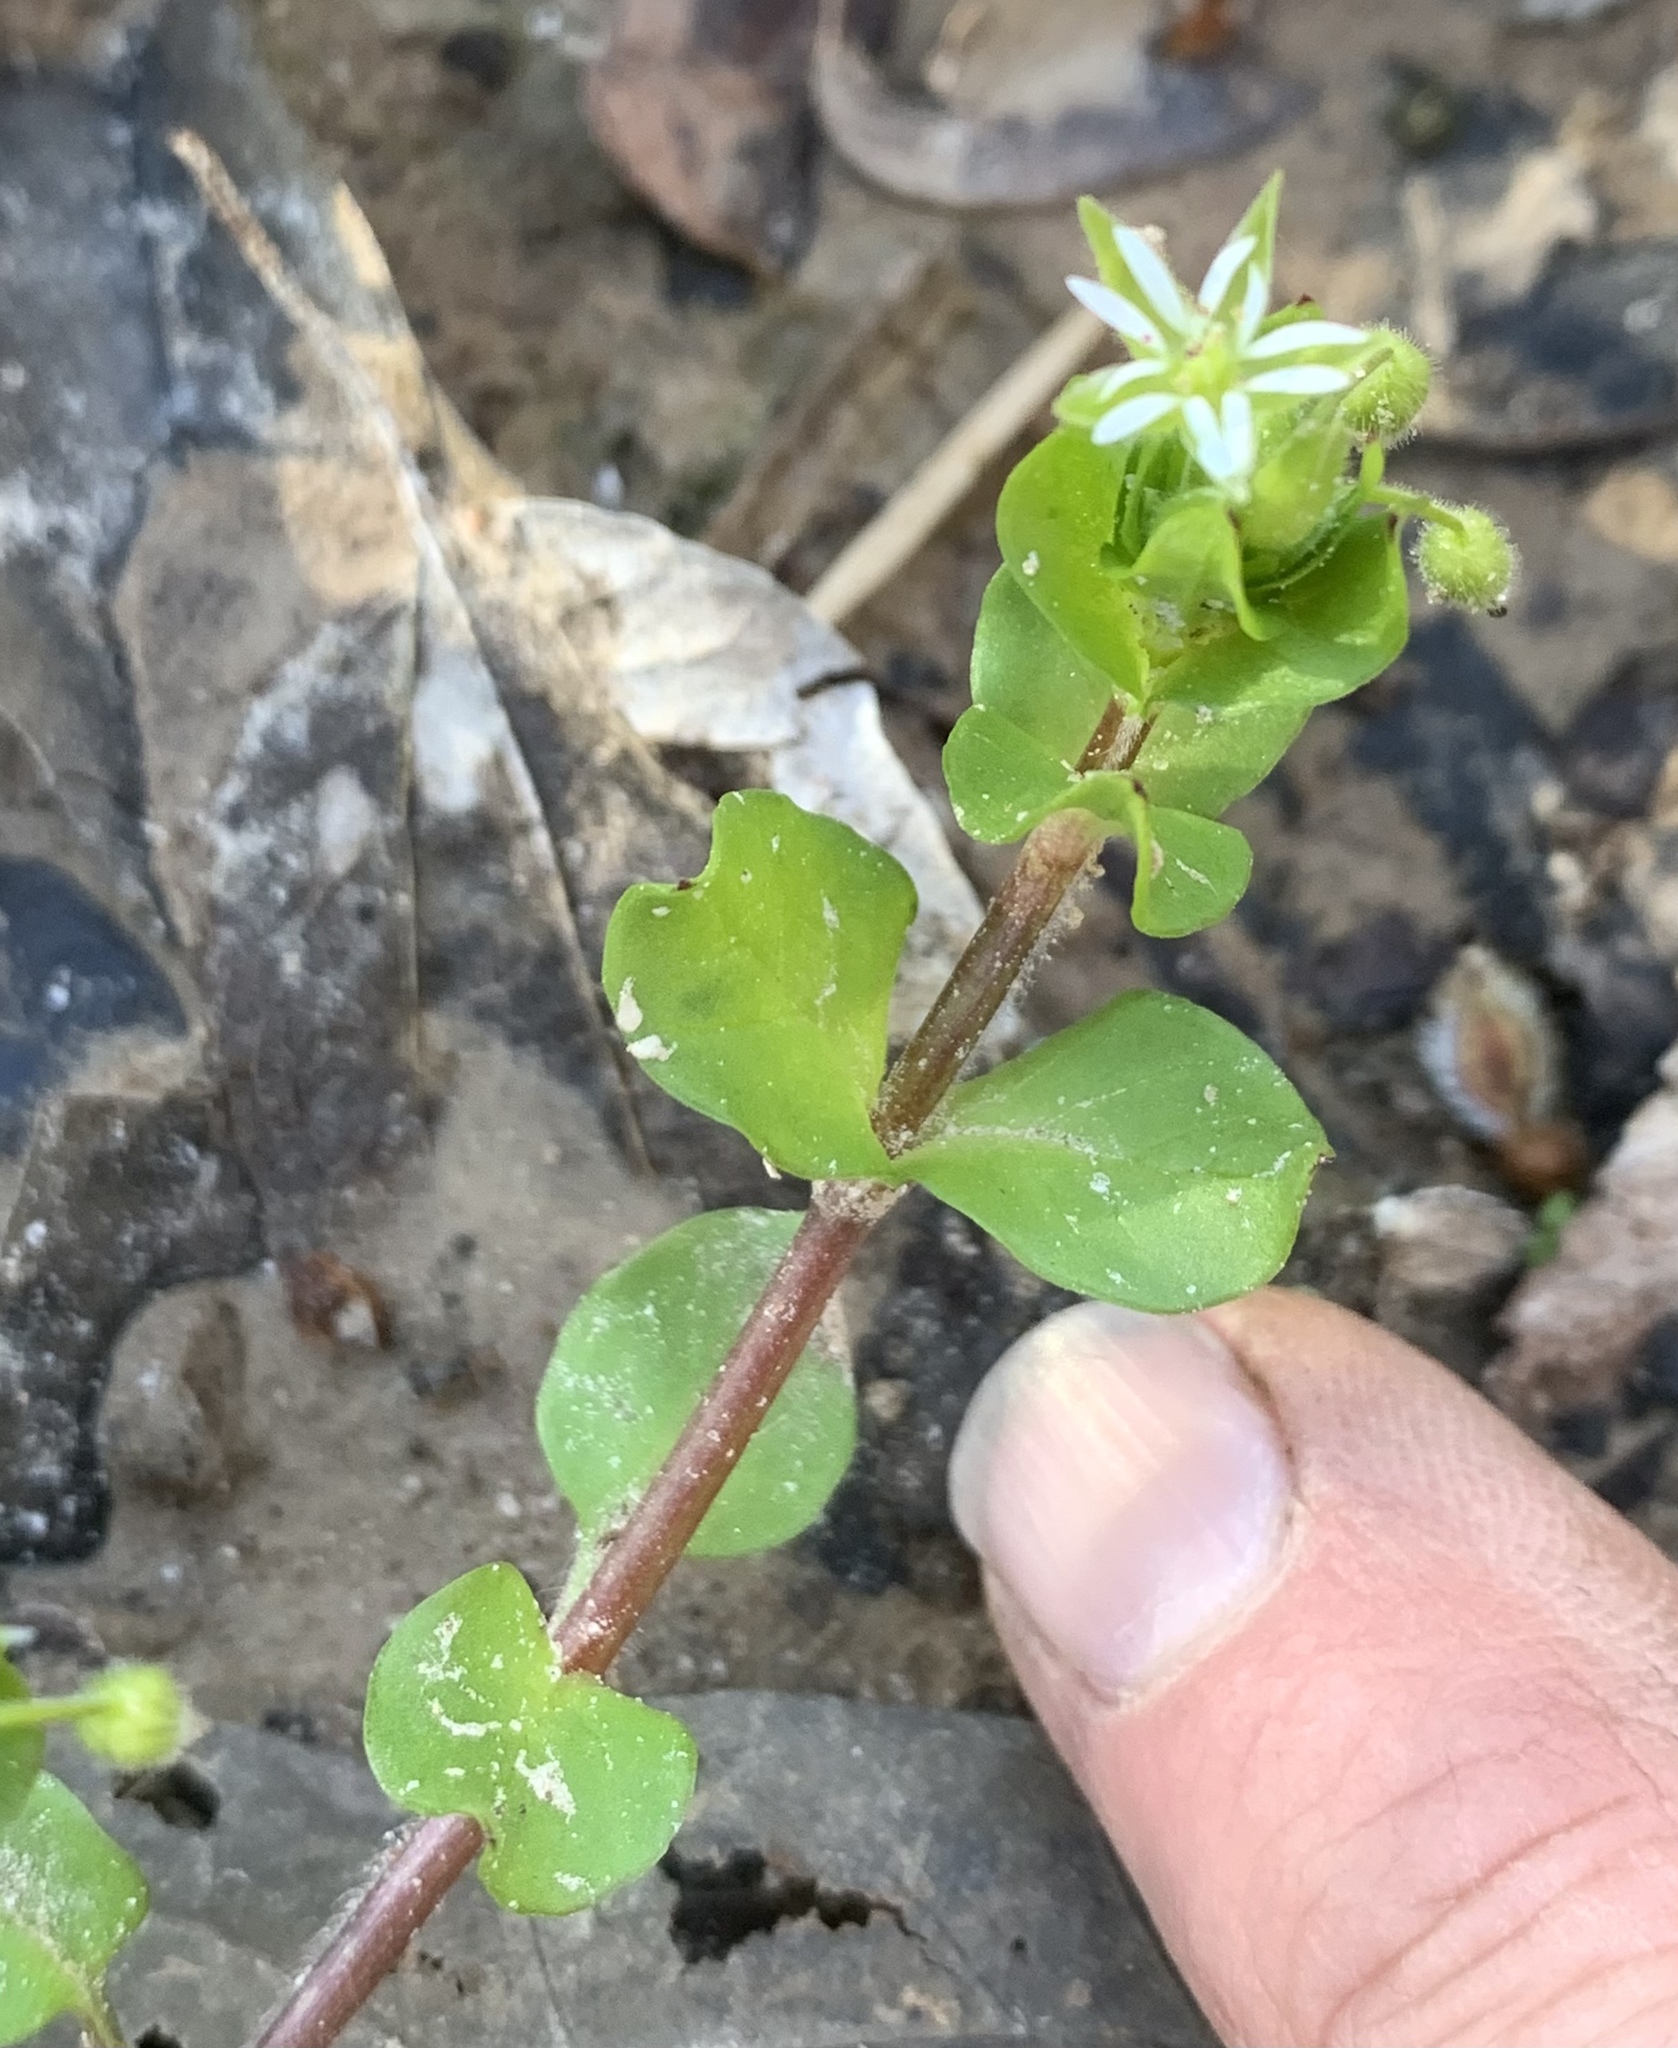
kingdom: Plantae
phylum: Tracheophyta
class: Magnoliopsida
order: Caryophyllales
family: Caryophyllaceae
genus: Stellaria
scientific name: Stellaria media
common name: Common chickweed
